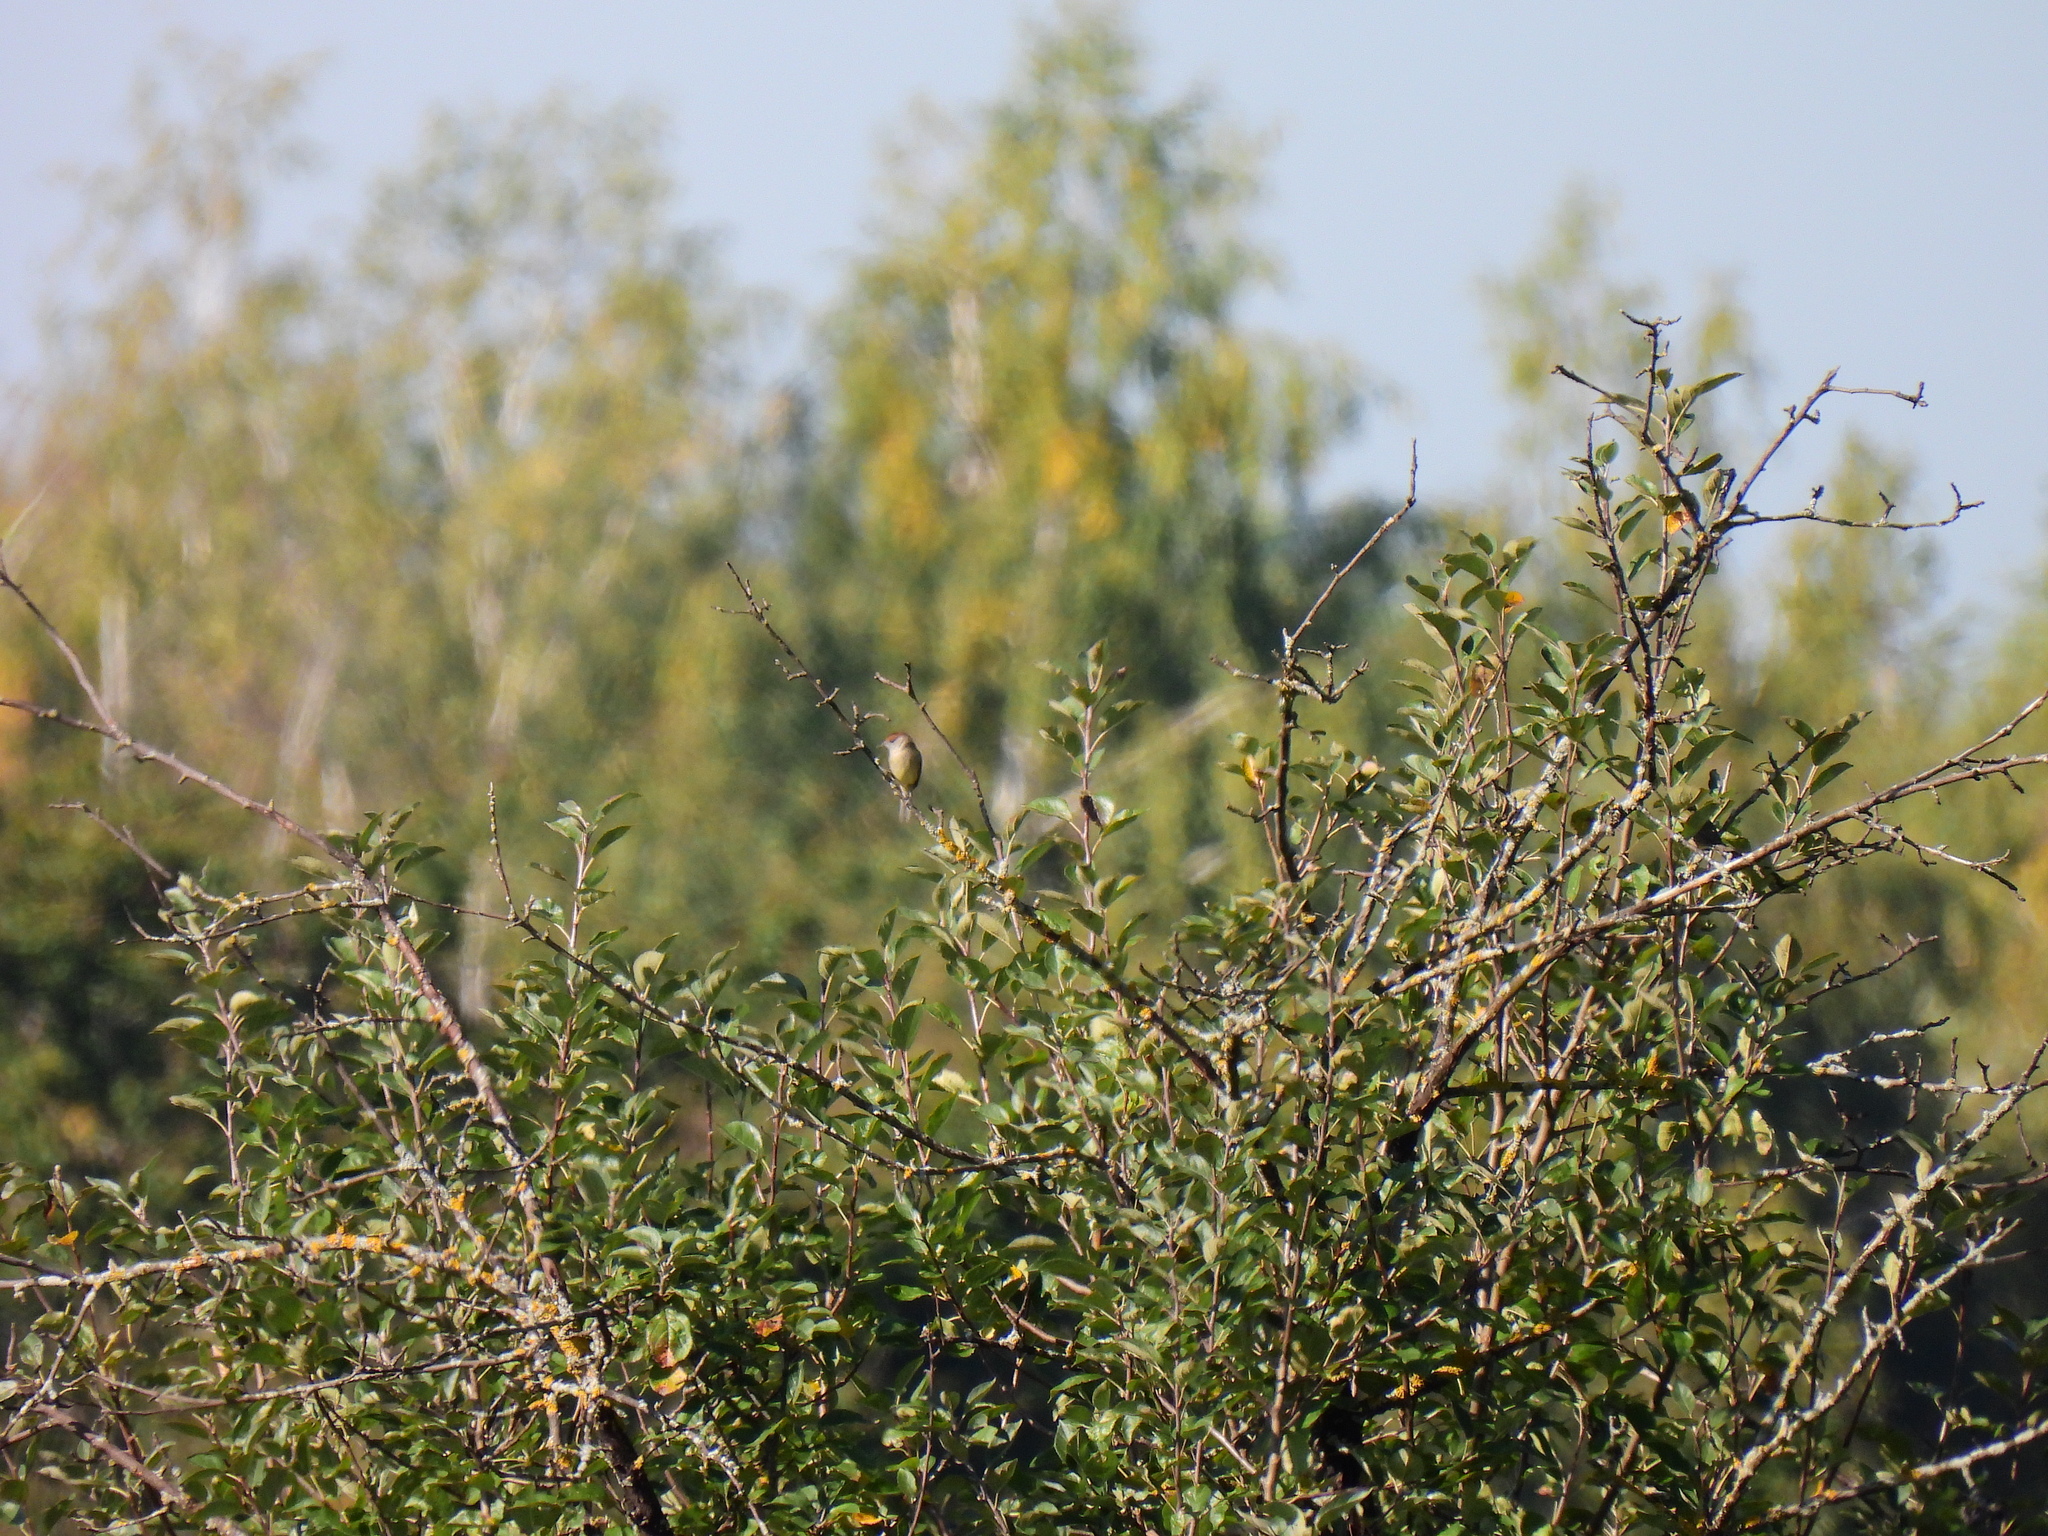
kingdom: Animalia
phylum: Chordata
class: Aves
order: Passeriformes
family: Sylviidae
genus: Sylvia
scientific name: Sylvia atricapilla
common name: Eurasian blackcap
